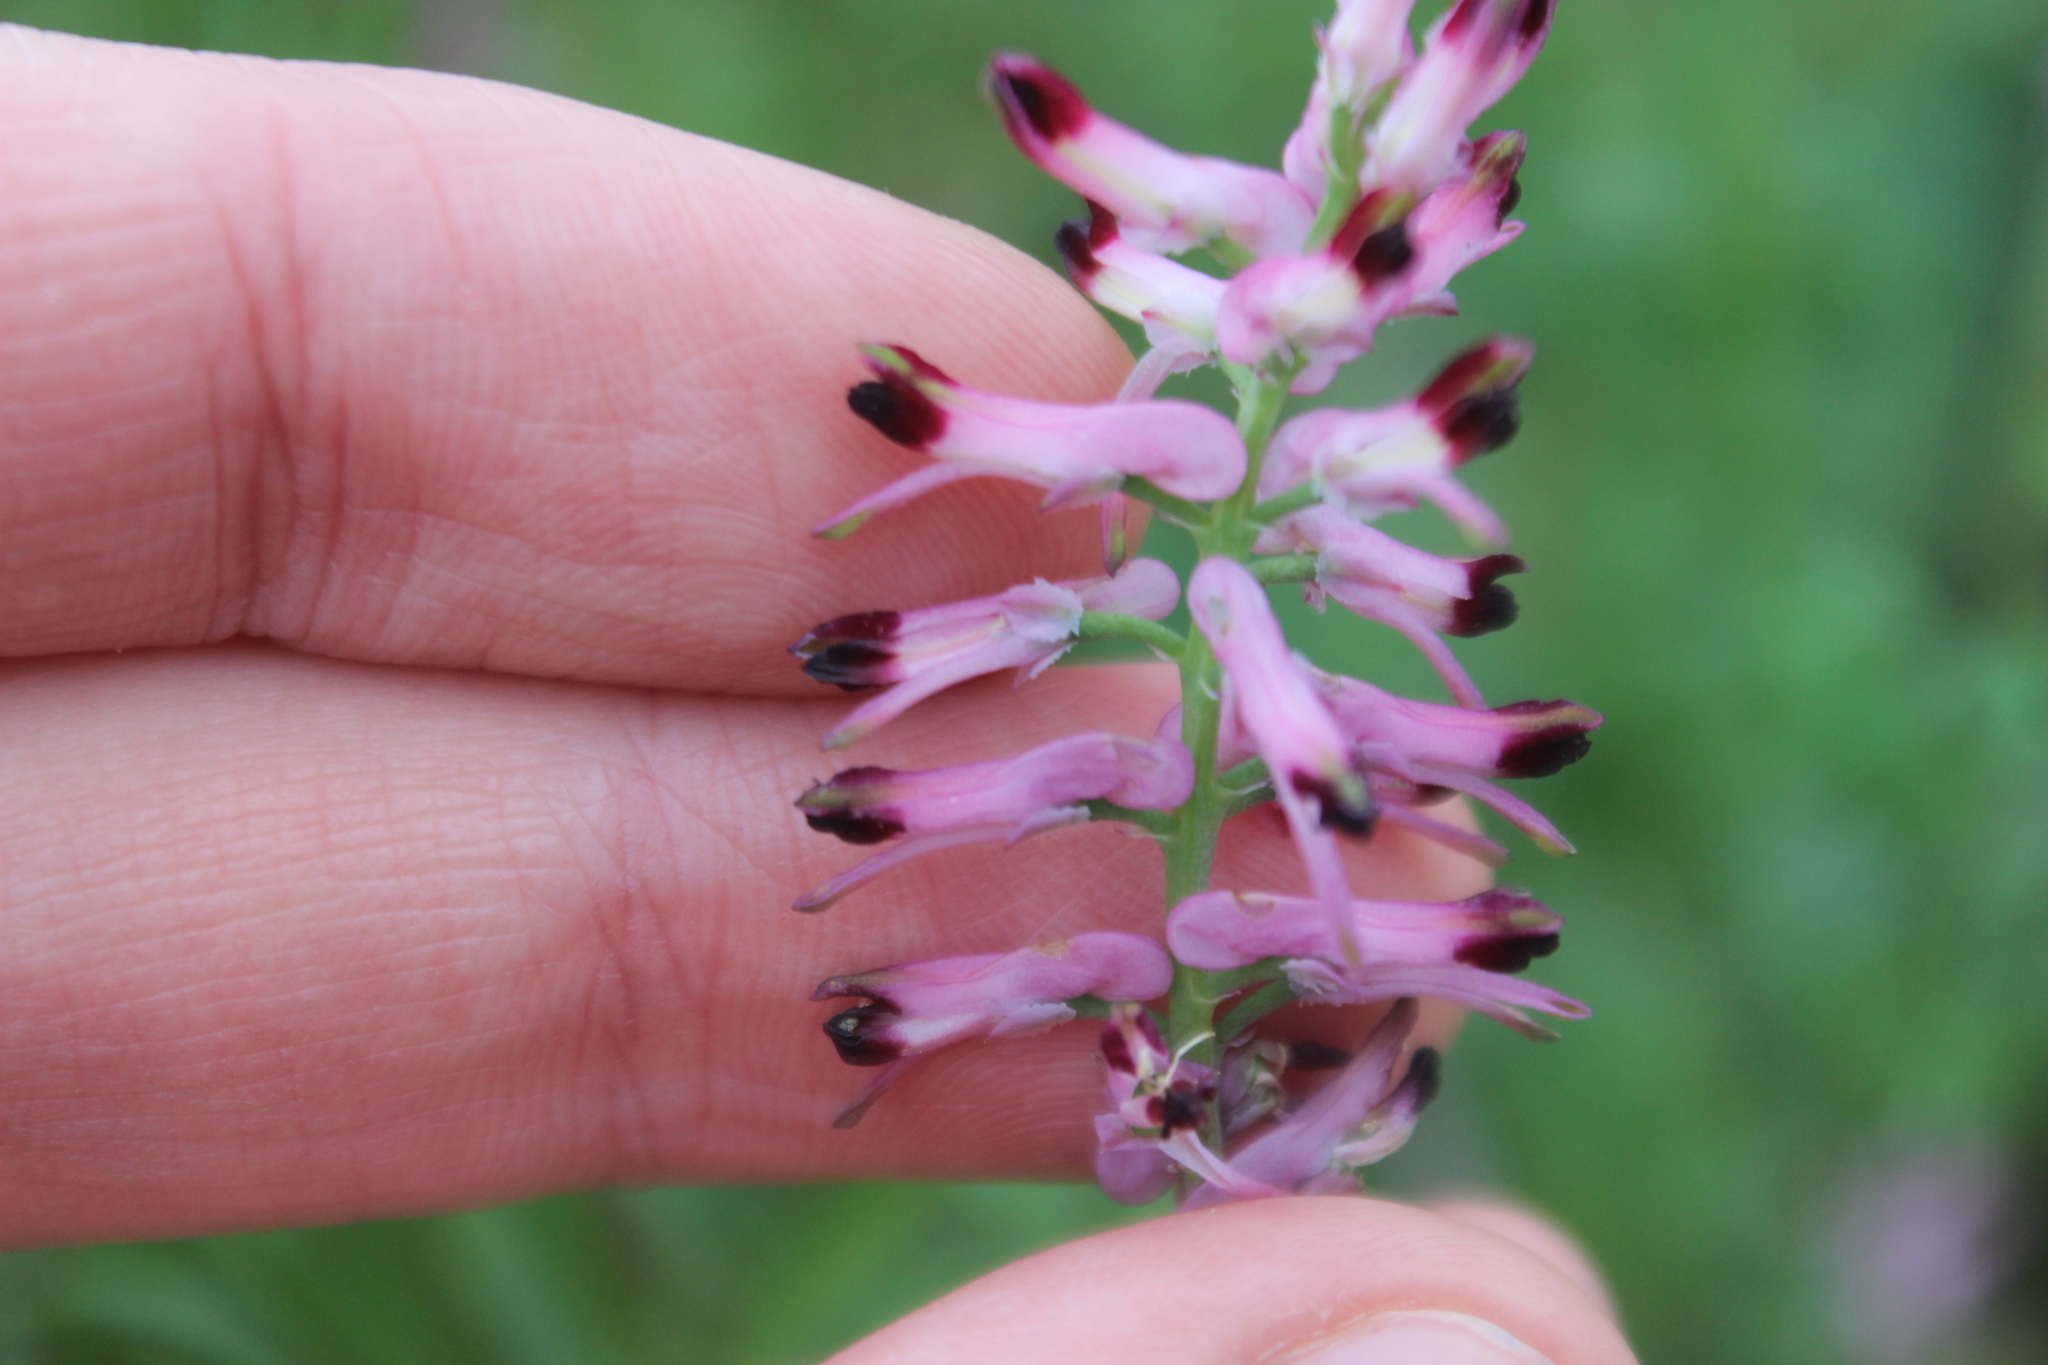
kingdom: Plantae
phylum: Tracheophyta
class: Magnoliopsida
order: Ranunculales
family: Papaveraceae
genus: Fumaria
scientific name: Fumaria bastardii
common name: Tall ramping-fumitory
